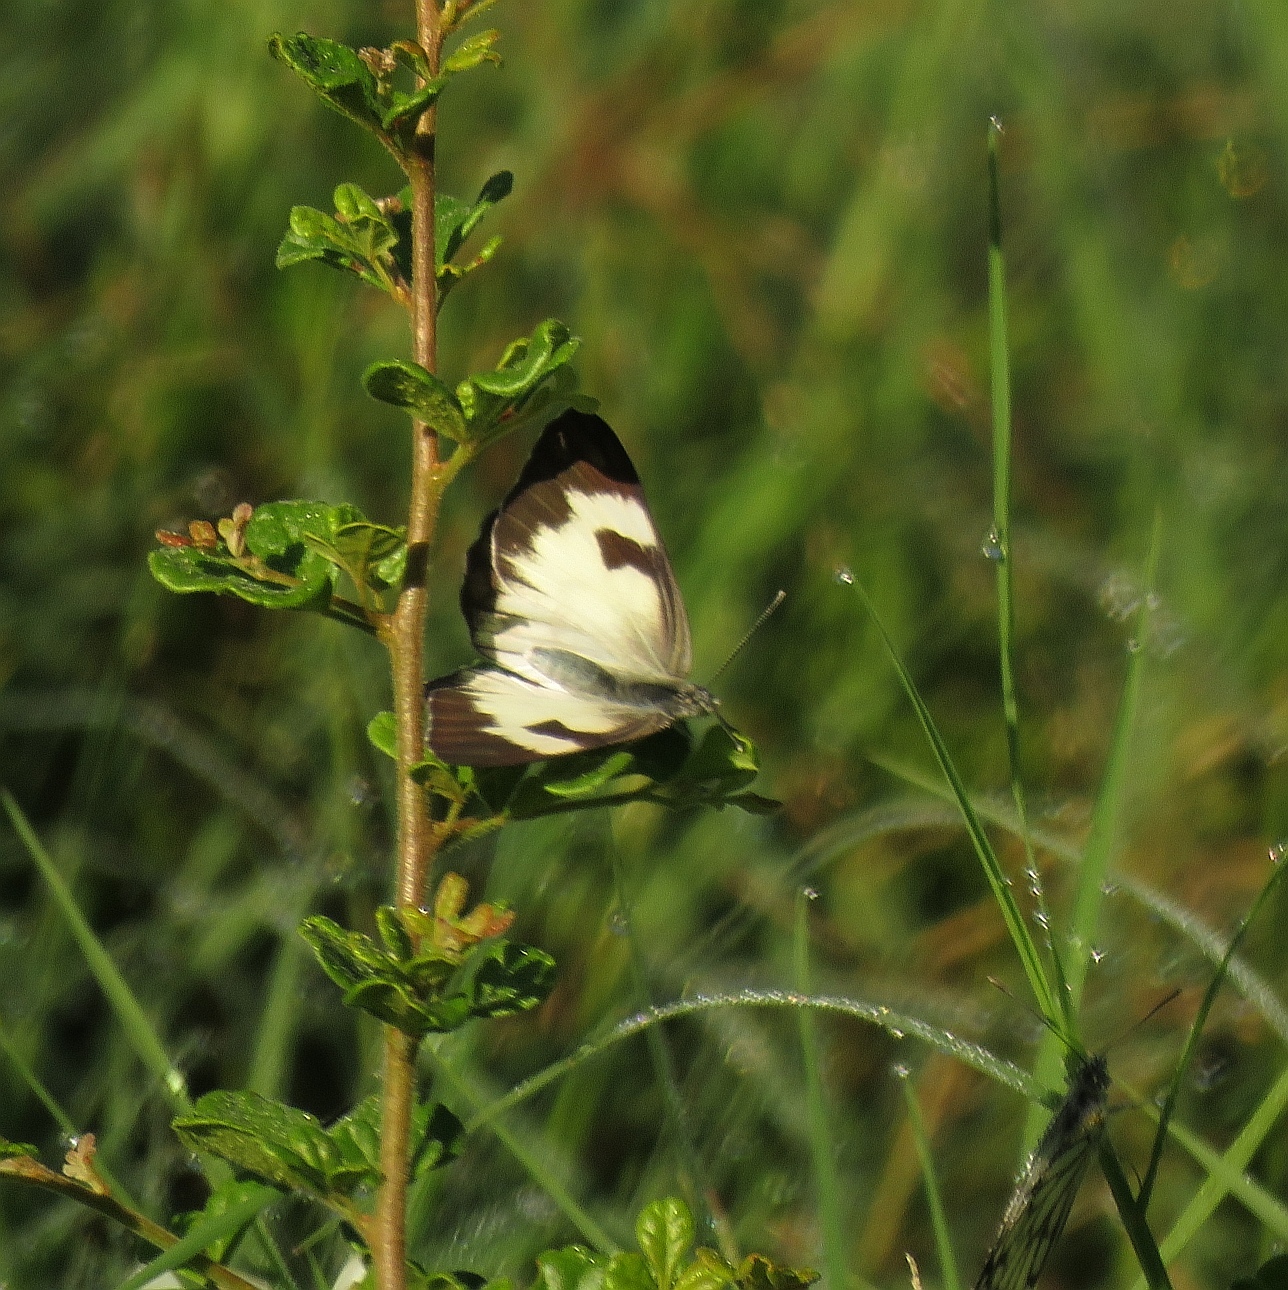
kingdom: Animalia
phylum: Arthropoda
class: Insecta
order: Lepidoptera
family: Pieridae
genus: Belenois
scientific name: Belenois aurota
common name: Brown-veined white
